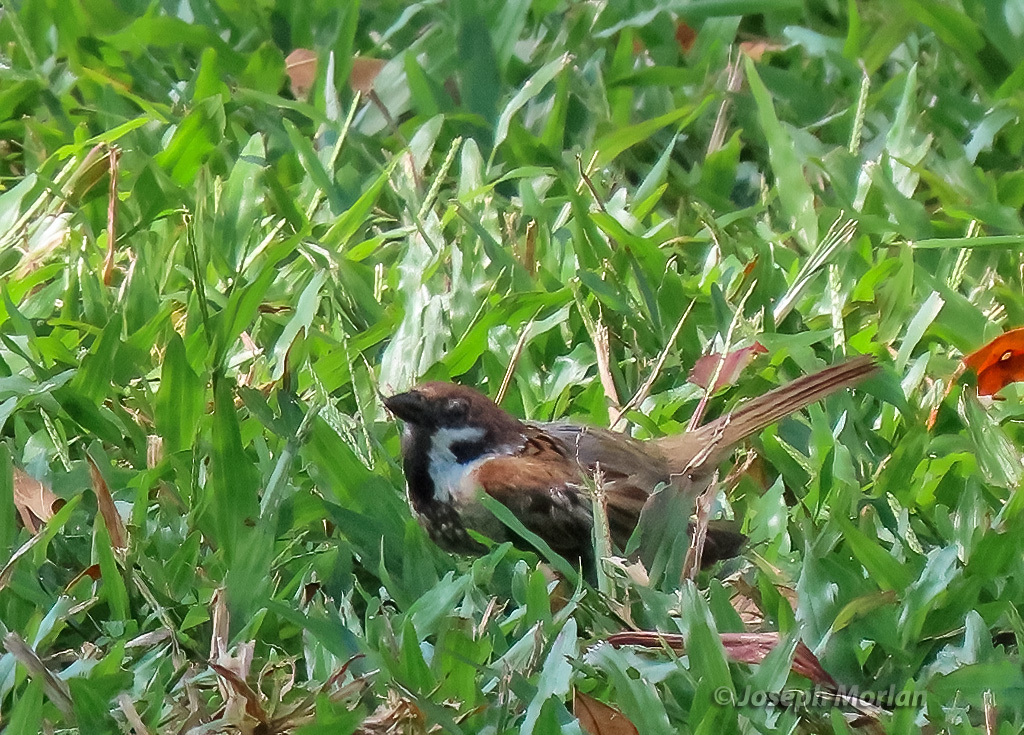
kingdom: Animalia
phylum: Chordata
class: Aves
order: Passeriformes
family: Passeridae
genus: Passer
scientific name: Passer montanus
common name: Eurasian tree sparrow
